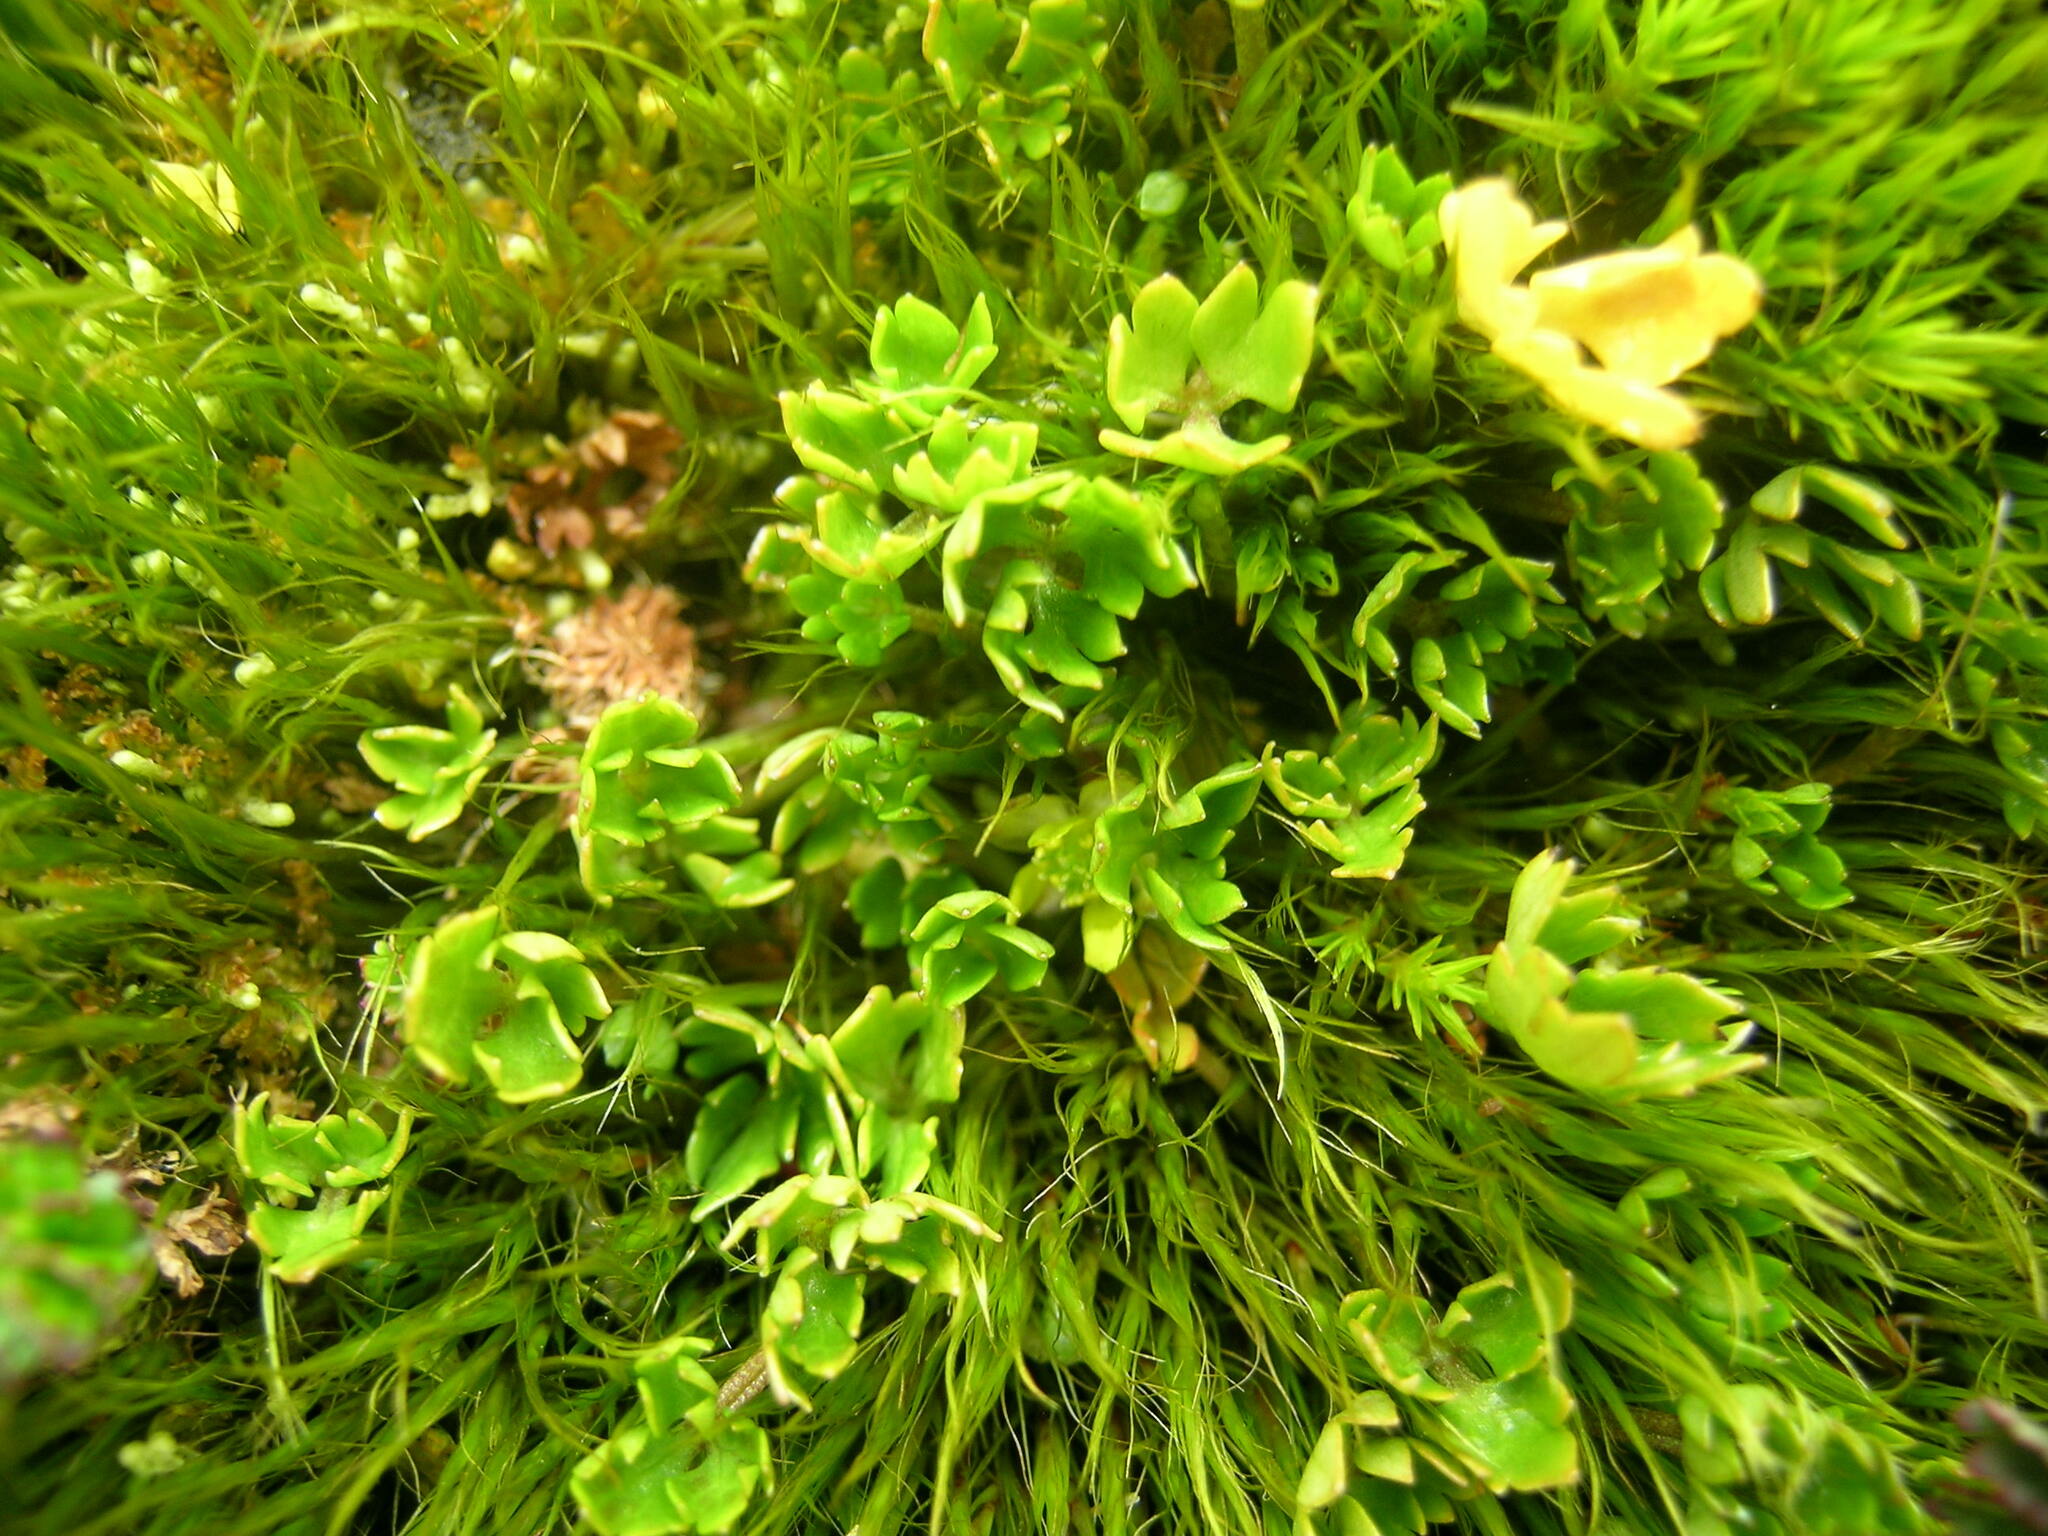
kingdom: Plantae
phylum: Tracheophyta
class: Magnoliopsida
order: Ranunculales
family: Ranunculaceae
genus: Ranunculus
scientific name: Ranunculus biternatus
